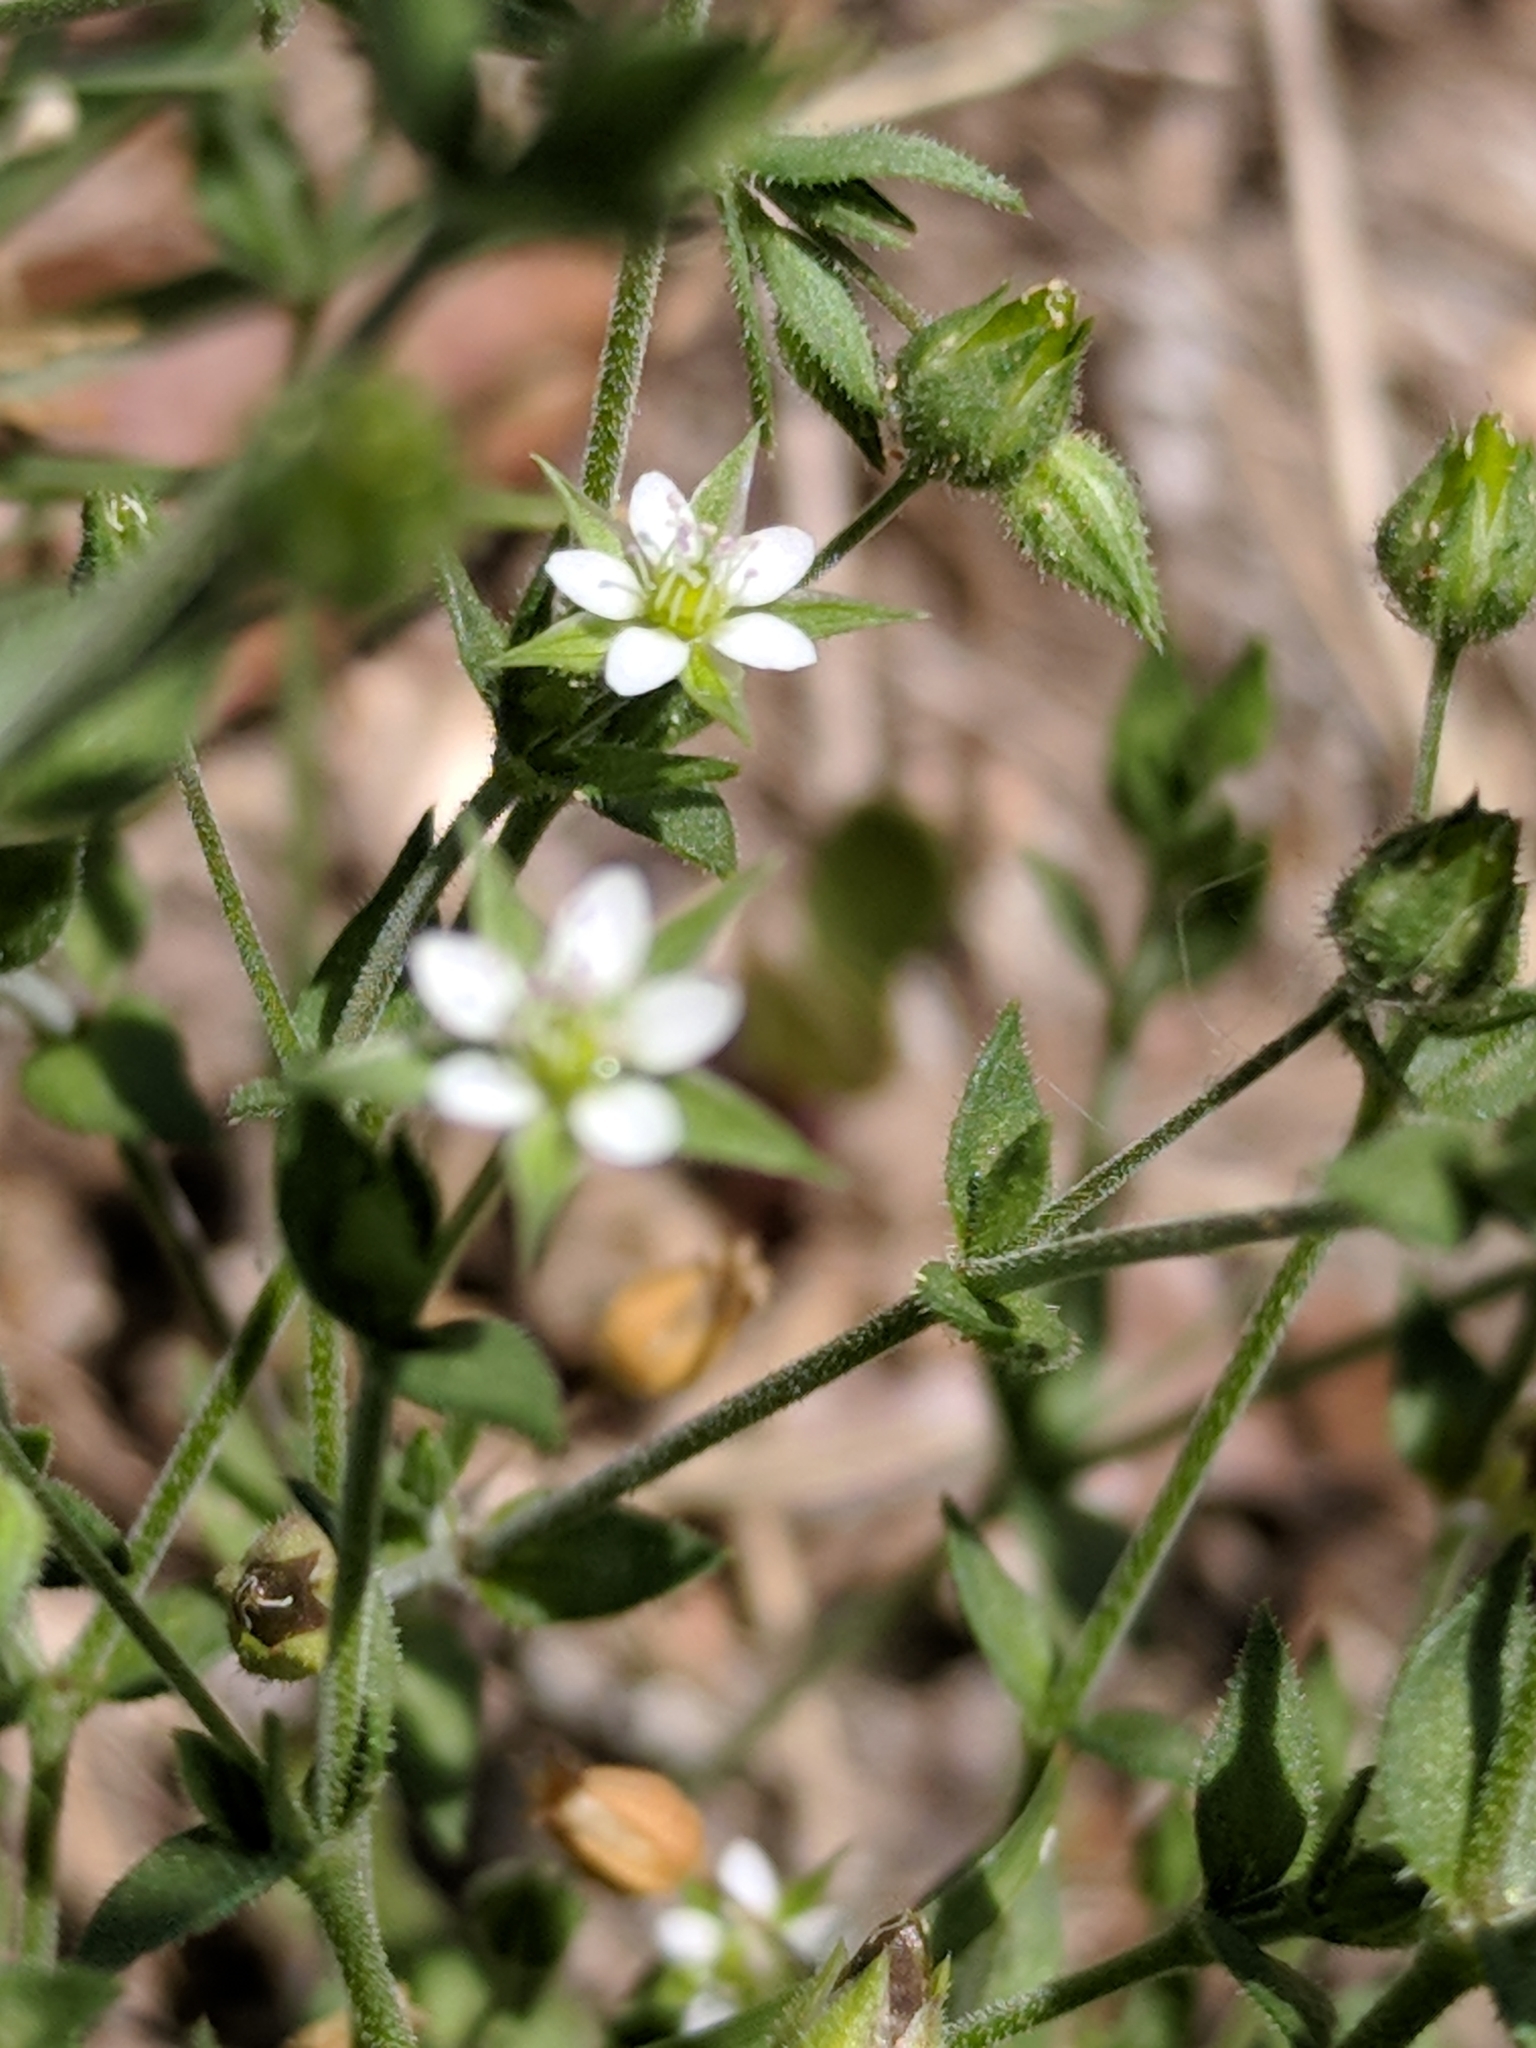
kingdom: Plantae
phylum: Tracheophyta
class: Magnoliopsida
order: Caryophyllales
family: Caryophyllaceae
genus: Arenaria
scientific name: Arenaria serpyllifolia
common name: Thyme-leaved sandwort
